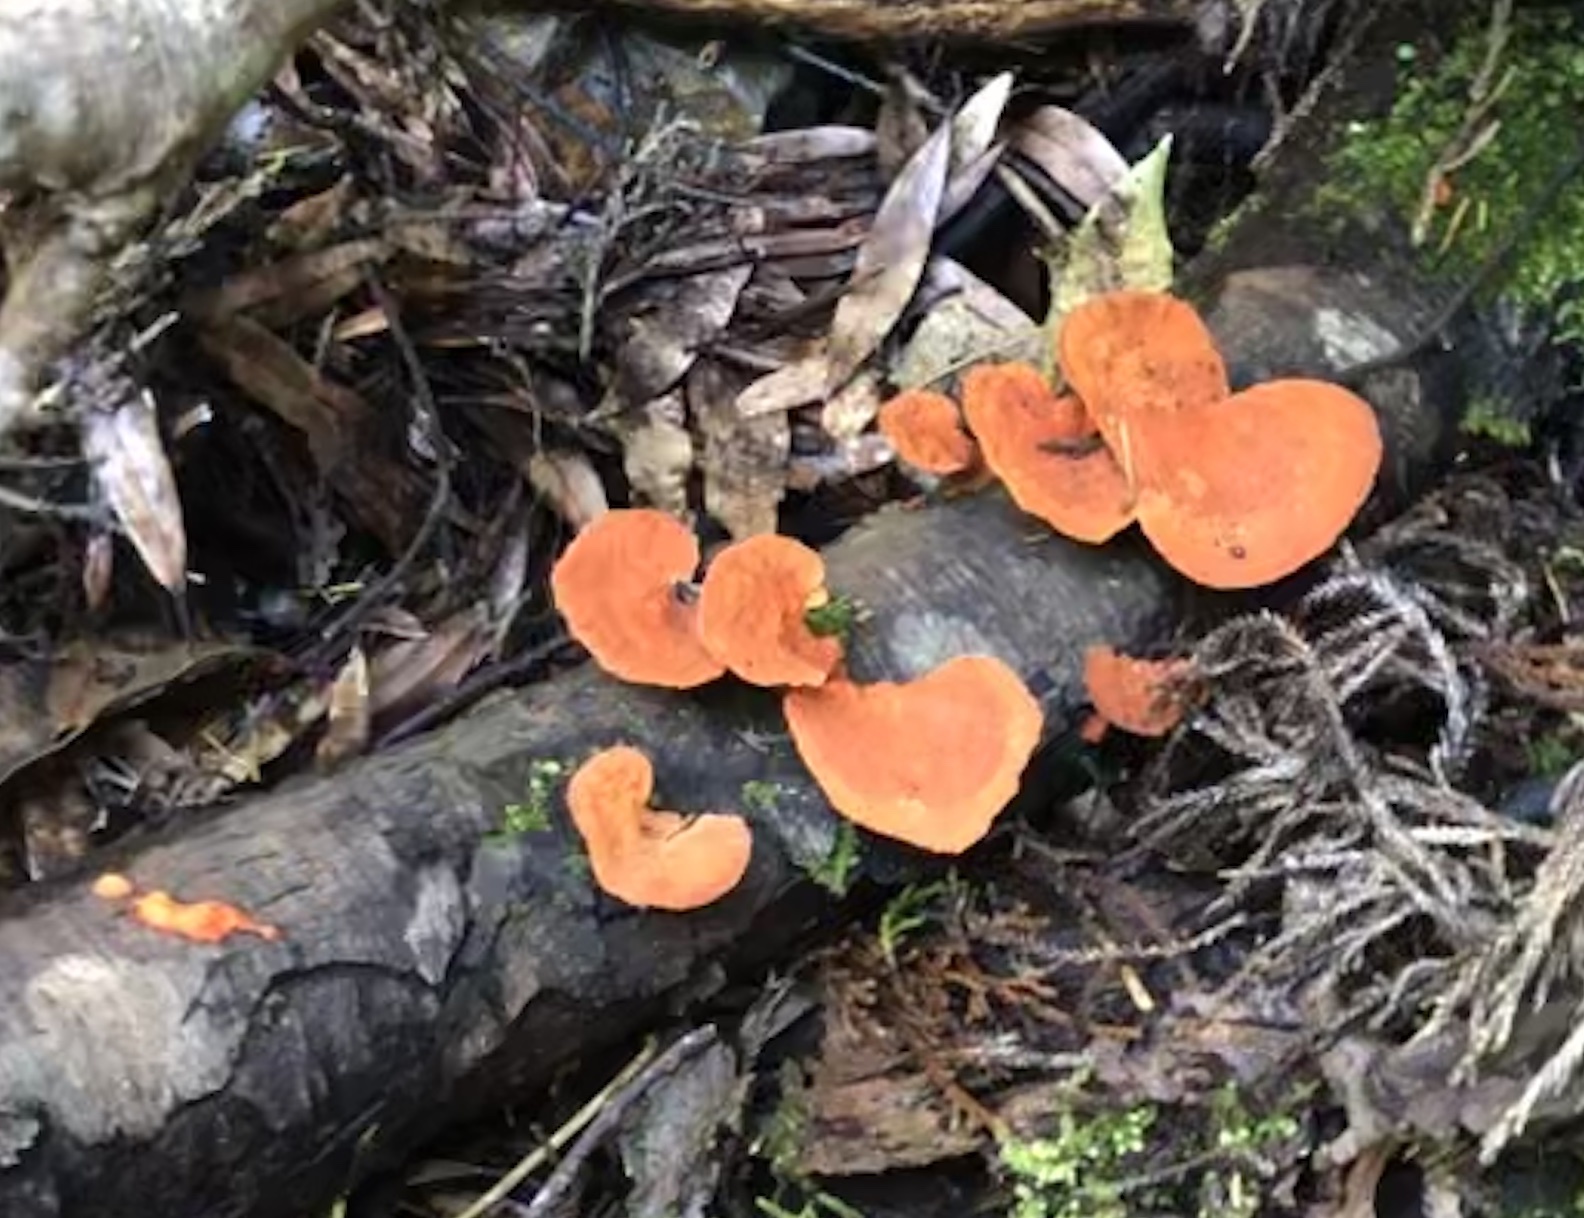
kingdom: Fungi
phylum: Basidiomycota
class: Agaricomycetes
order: Polyporales
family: Polyporaceae
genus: Trametes
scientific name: Trametes coccinea
